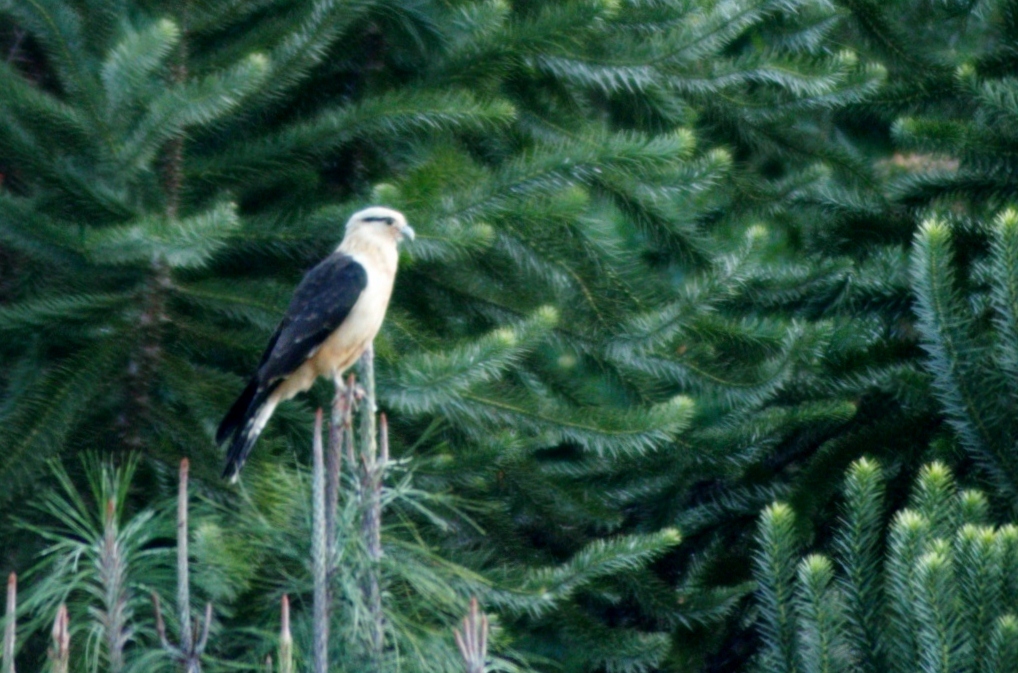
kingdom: Animalia
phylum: Chordata
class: Aves
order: Falconiformes
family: Falconidae
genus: Daptrius
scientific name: Daptrius
